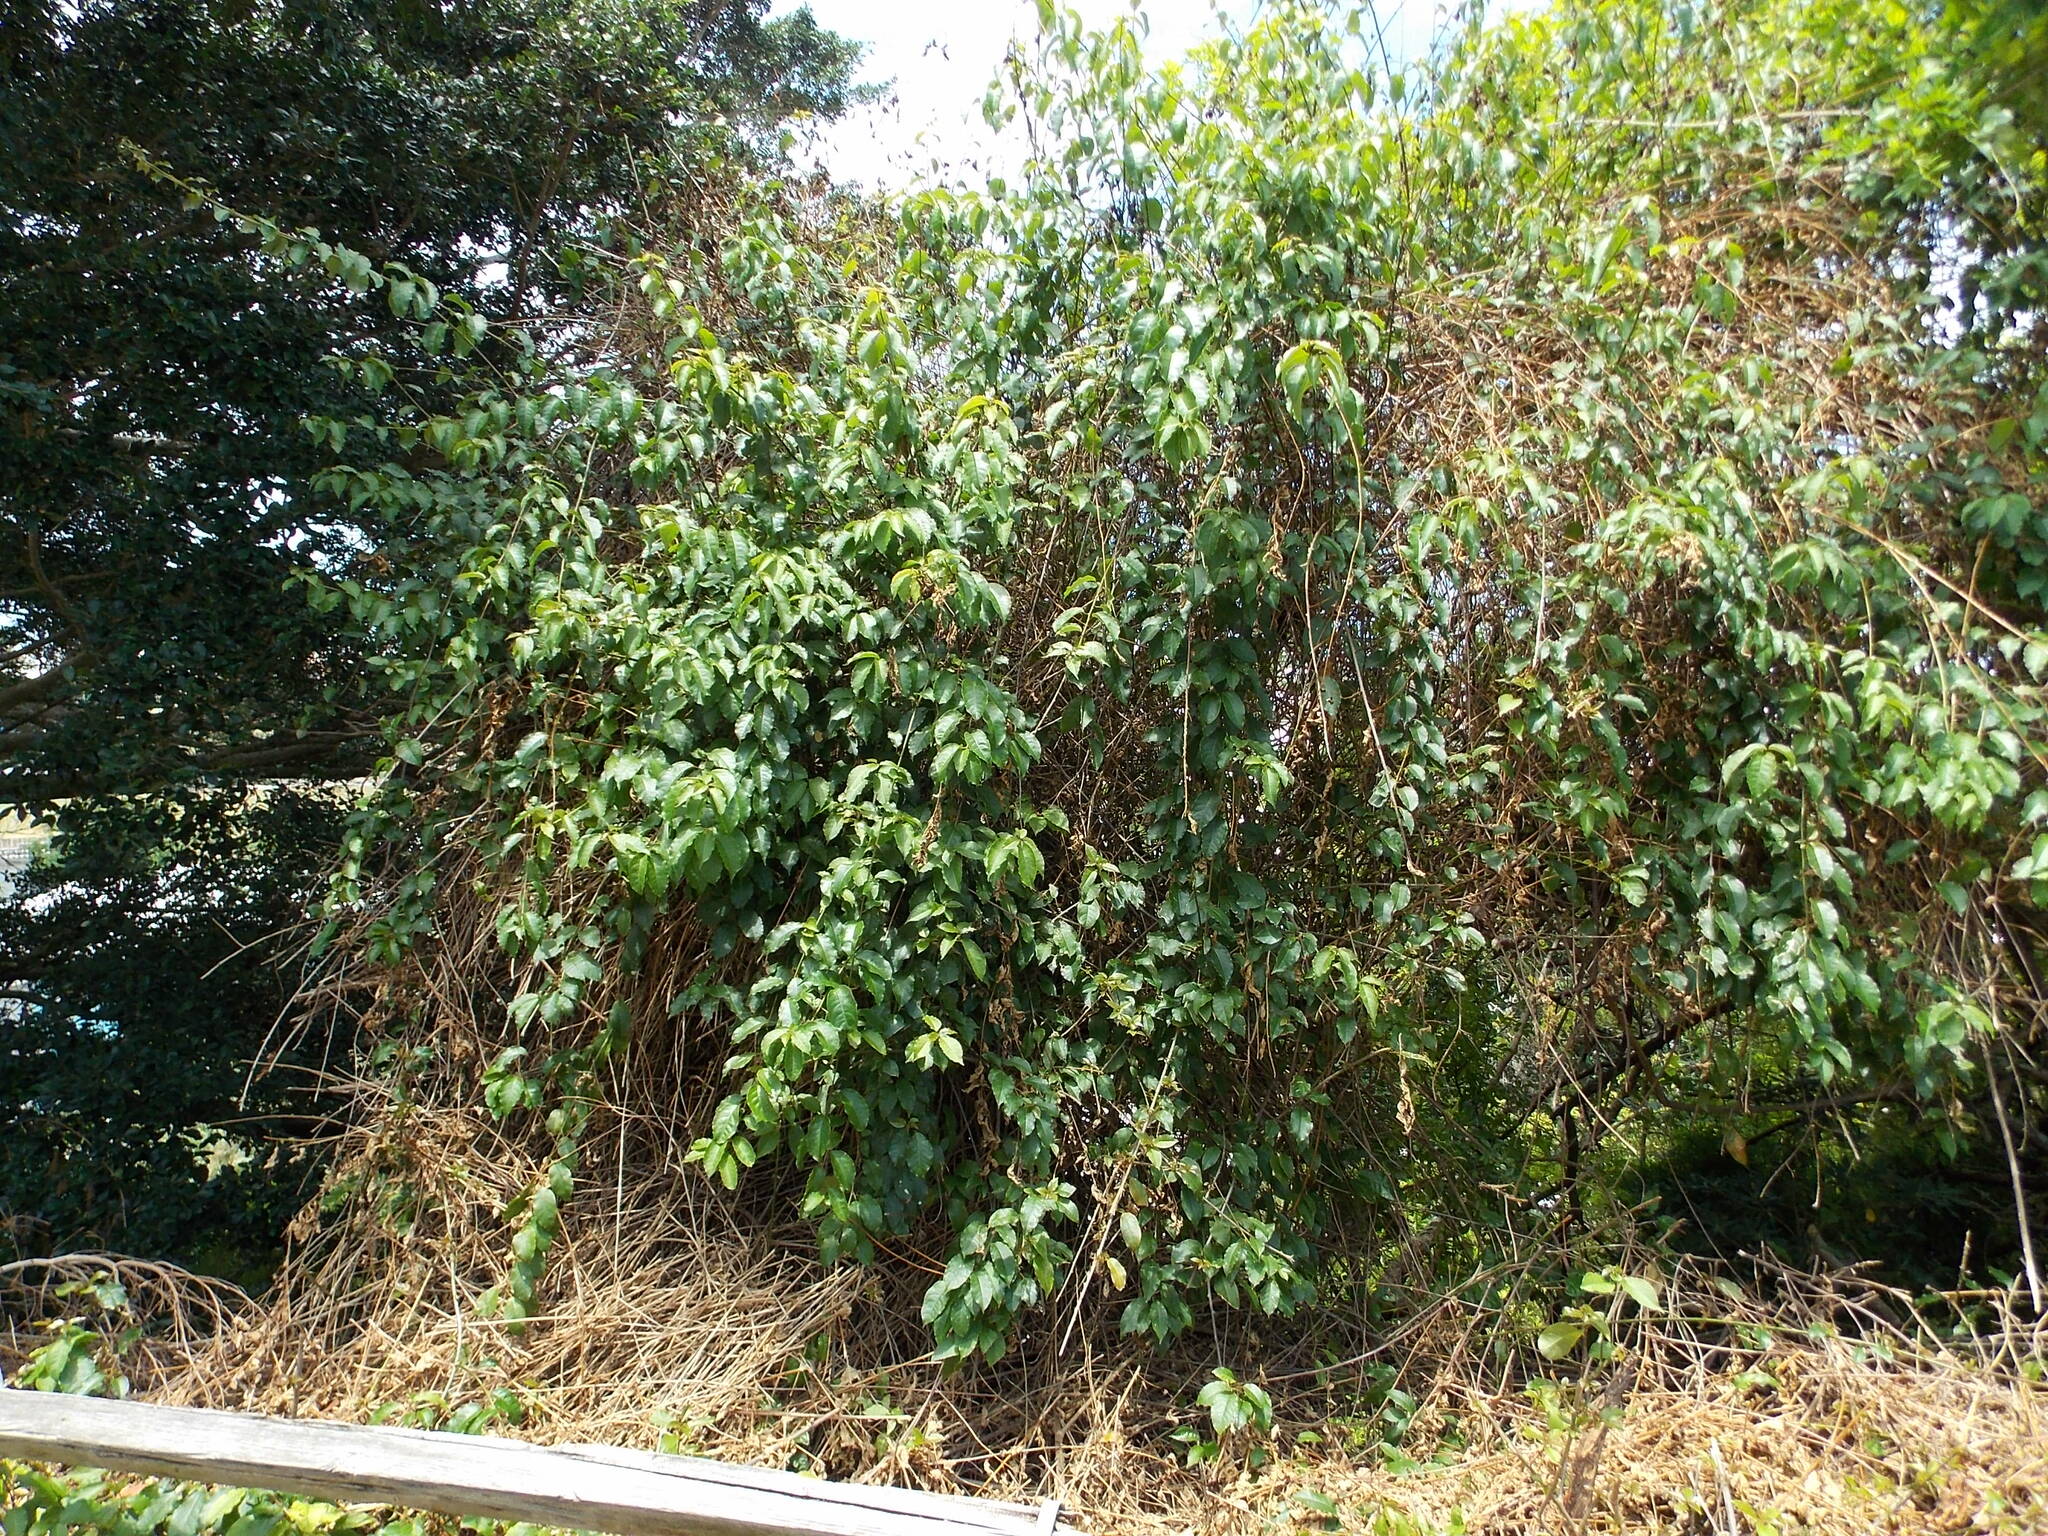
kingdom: Plantae
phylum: Tracheophyta
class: Magnoliopsida
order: Caryophyllales
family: Phytolaccaceae
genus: Trichostigma
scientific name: Trichostigma octandrum
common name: Basket wiss
